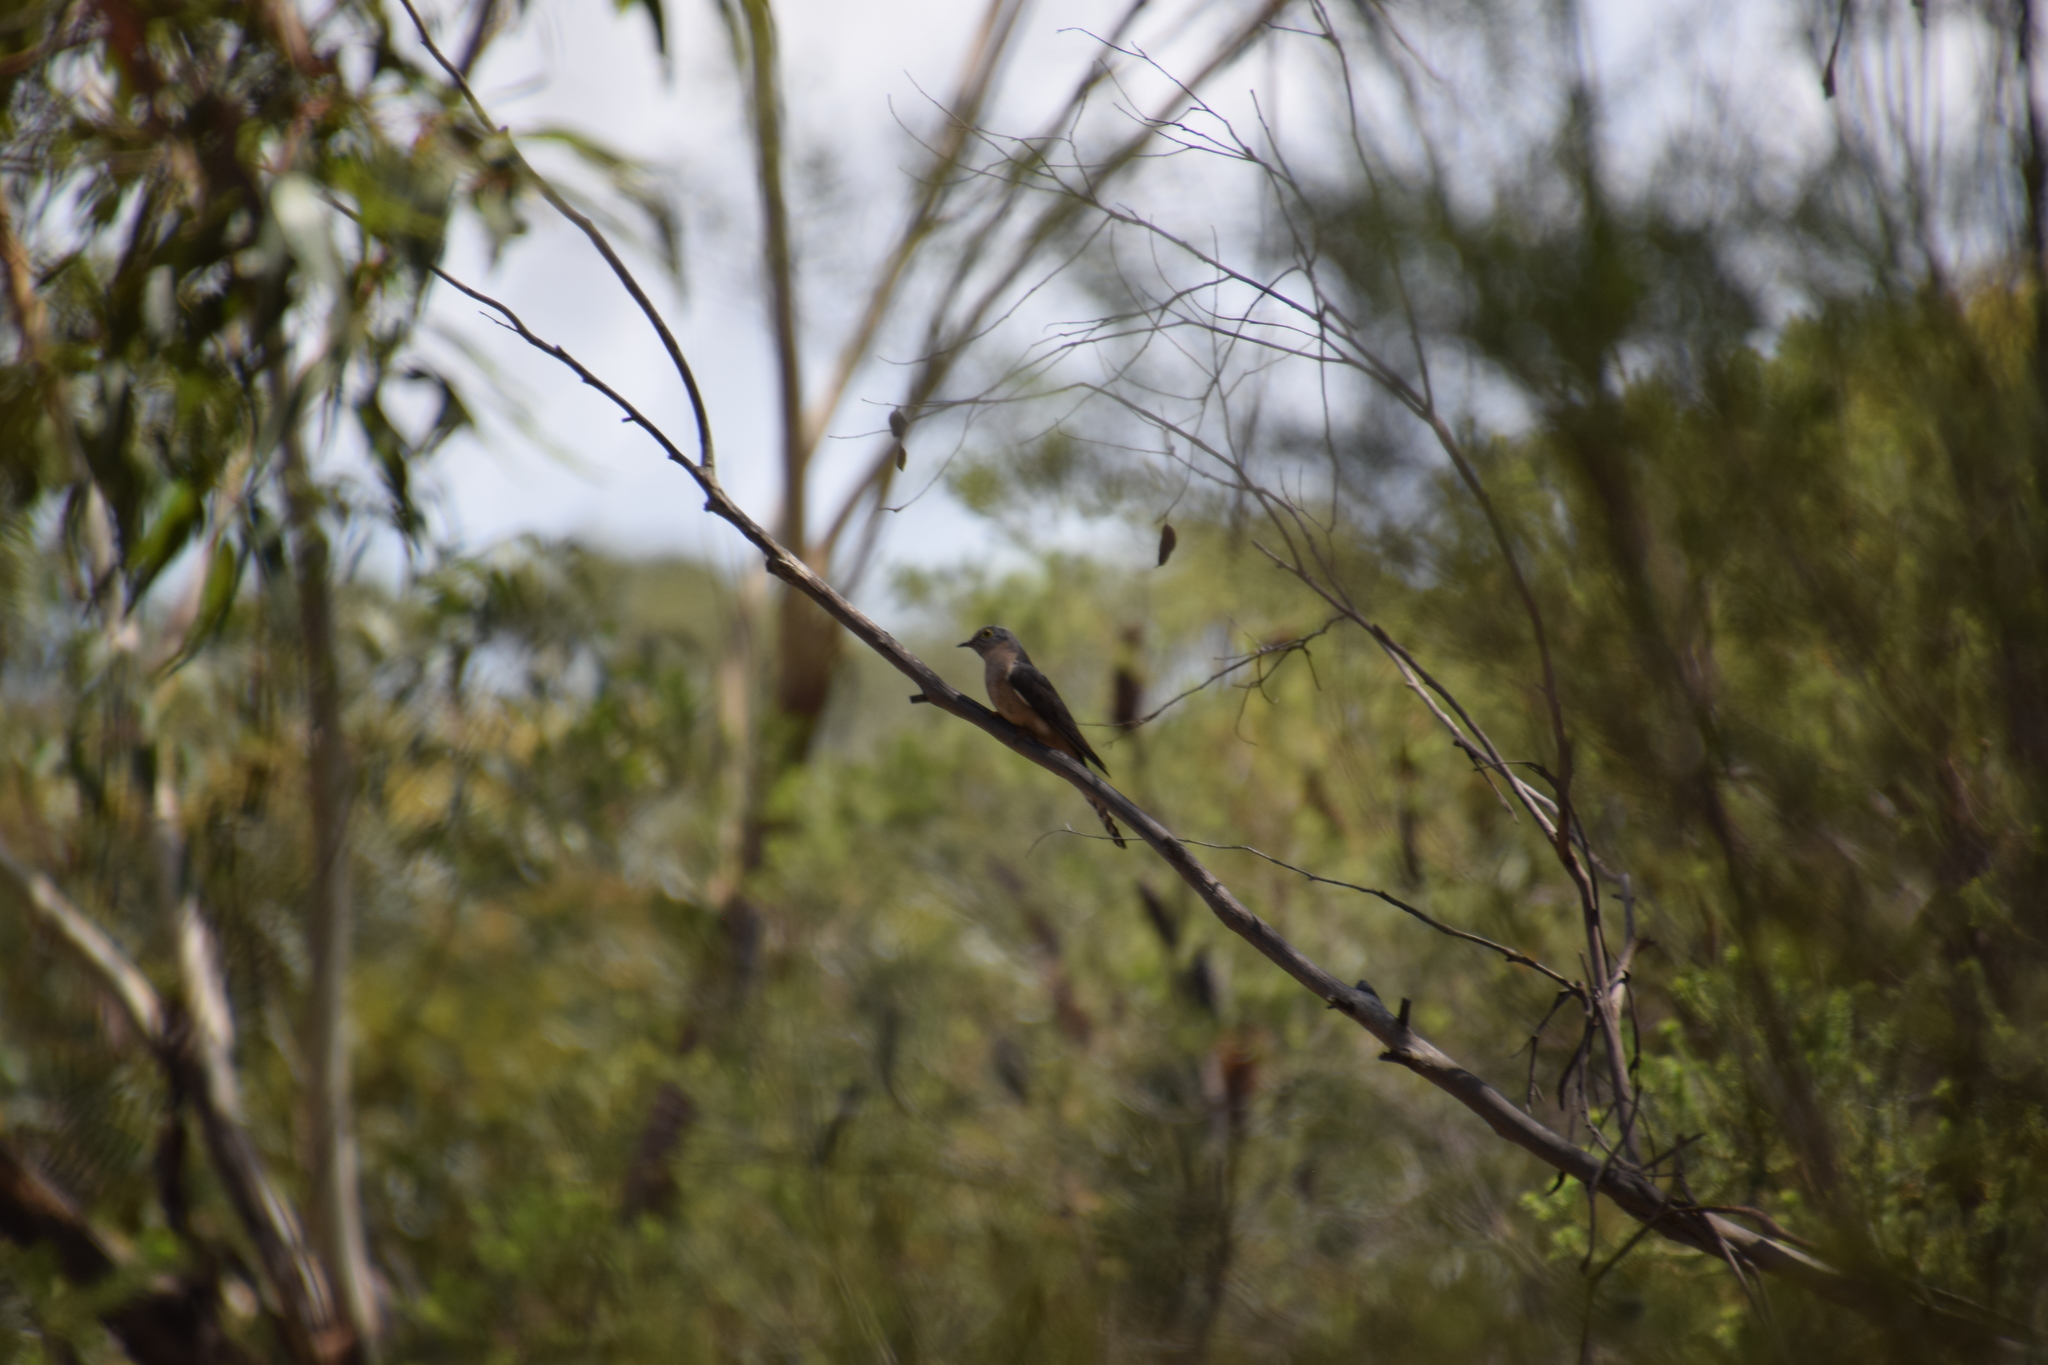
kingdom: Animalia
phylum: Chordata
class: Aves
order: Cuculiformes
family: Cuculidae
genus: Cacomantis
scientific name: Cacomantis flabelliformis
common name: Fan-tailed cuckoo
